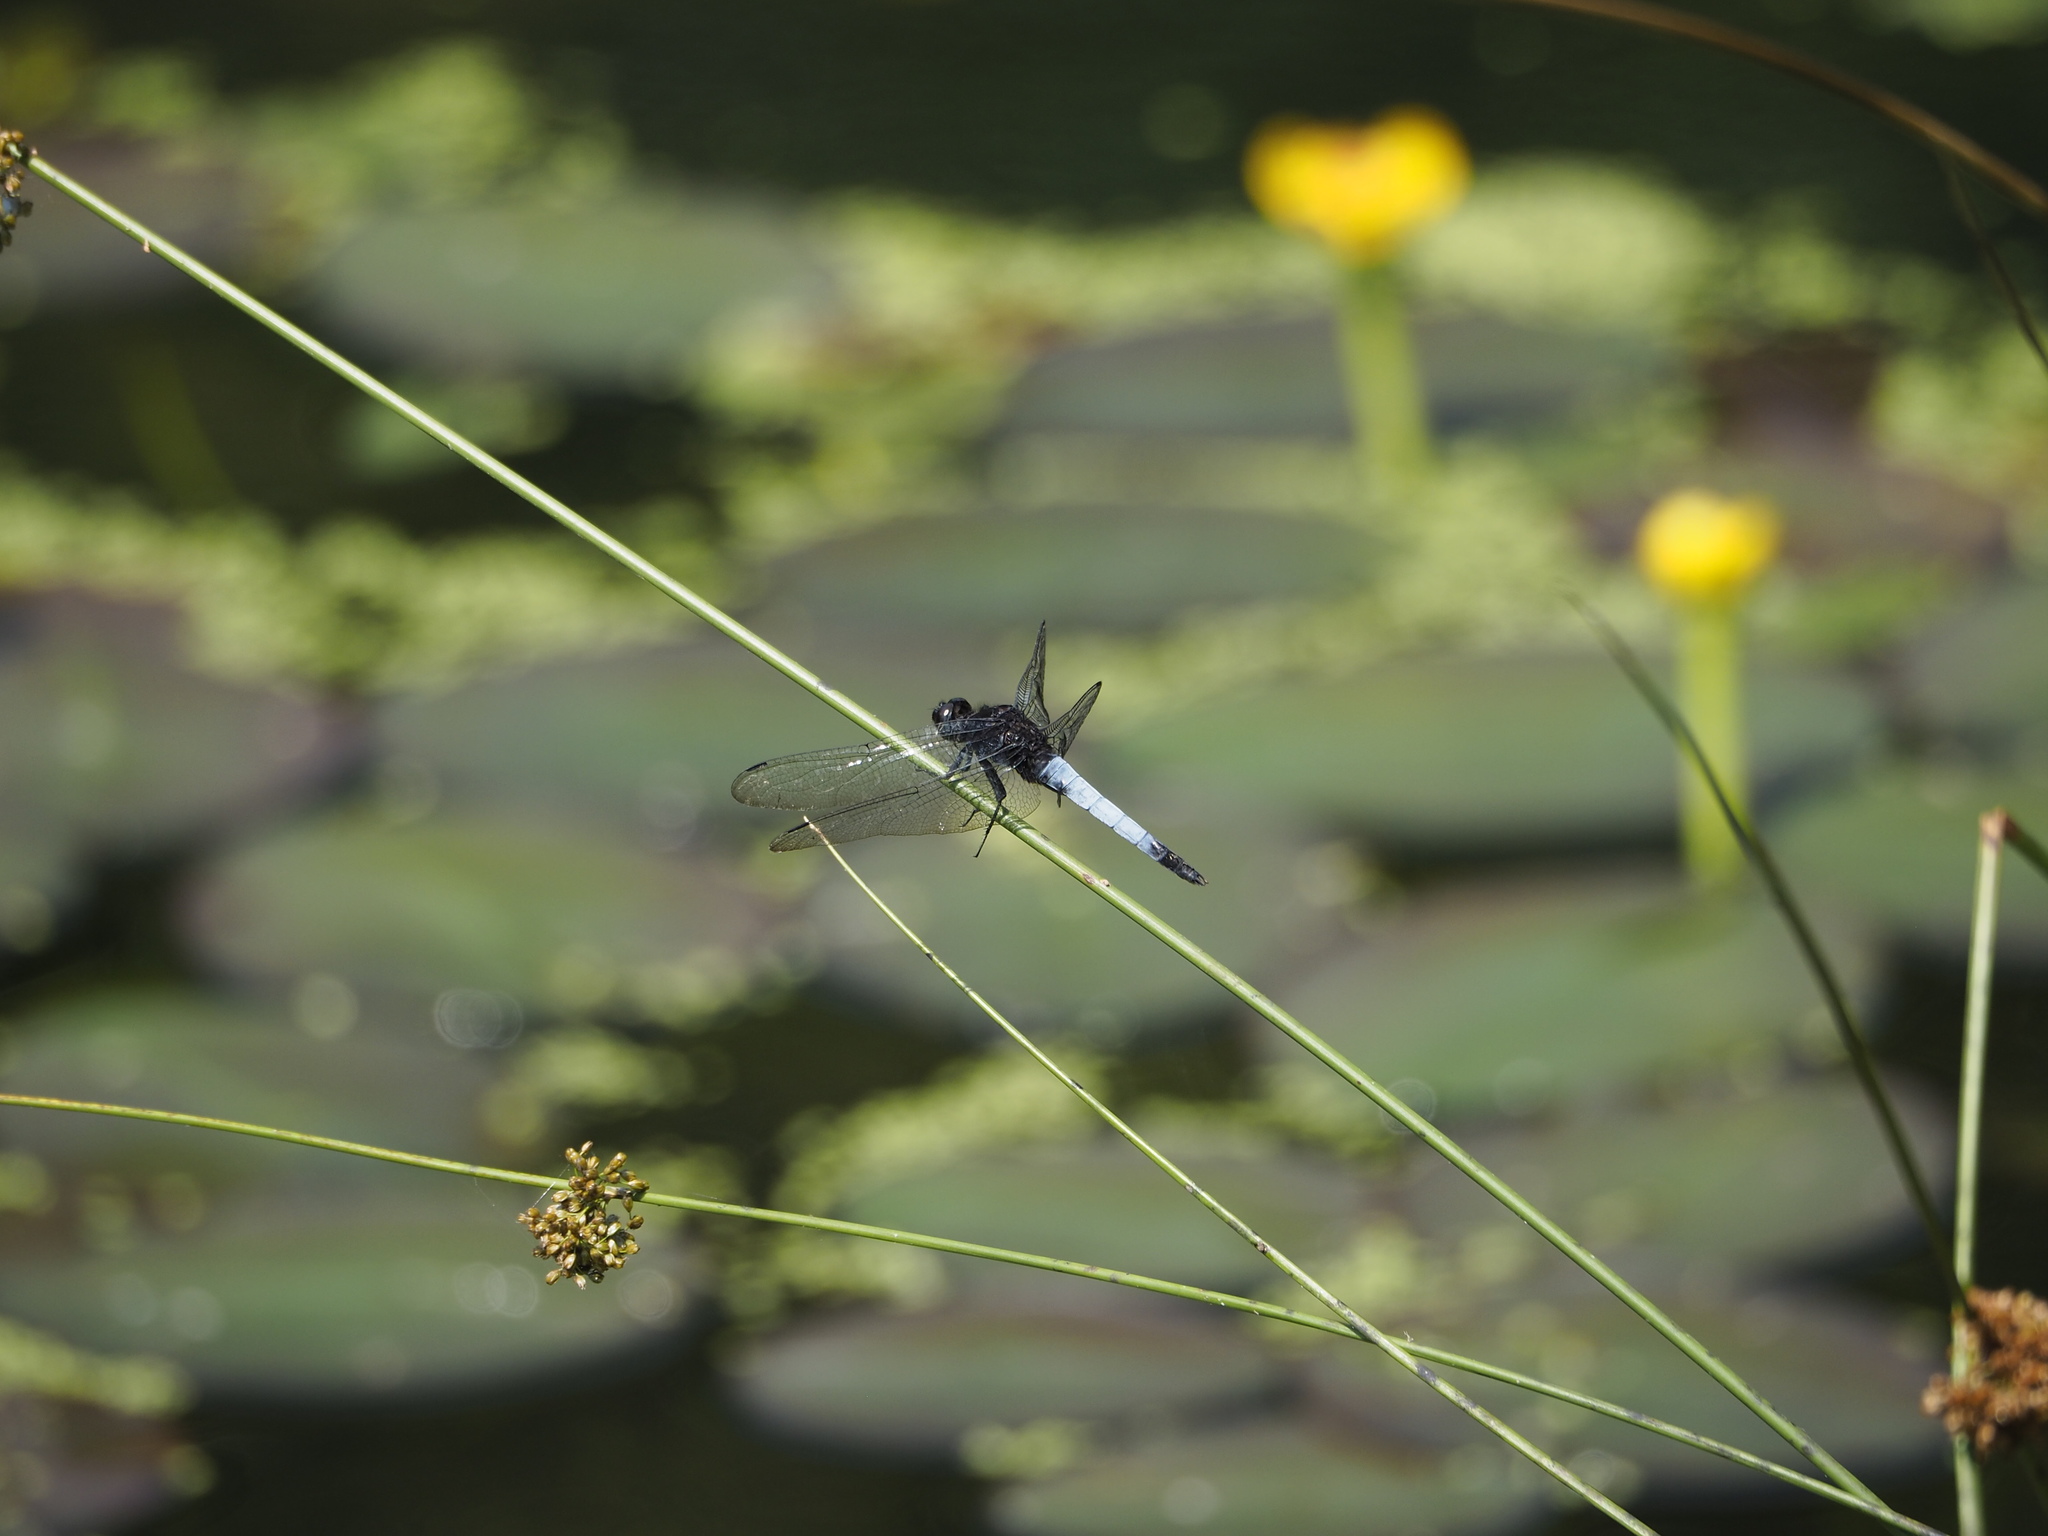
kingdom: Animalia
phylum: Arthropoda
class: Insecta
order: Odonata
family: Libellulidae
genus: Orthetrum
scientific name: Orthetrum triangulare
